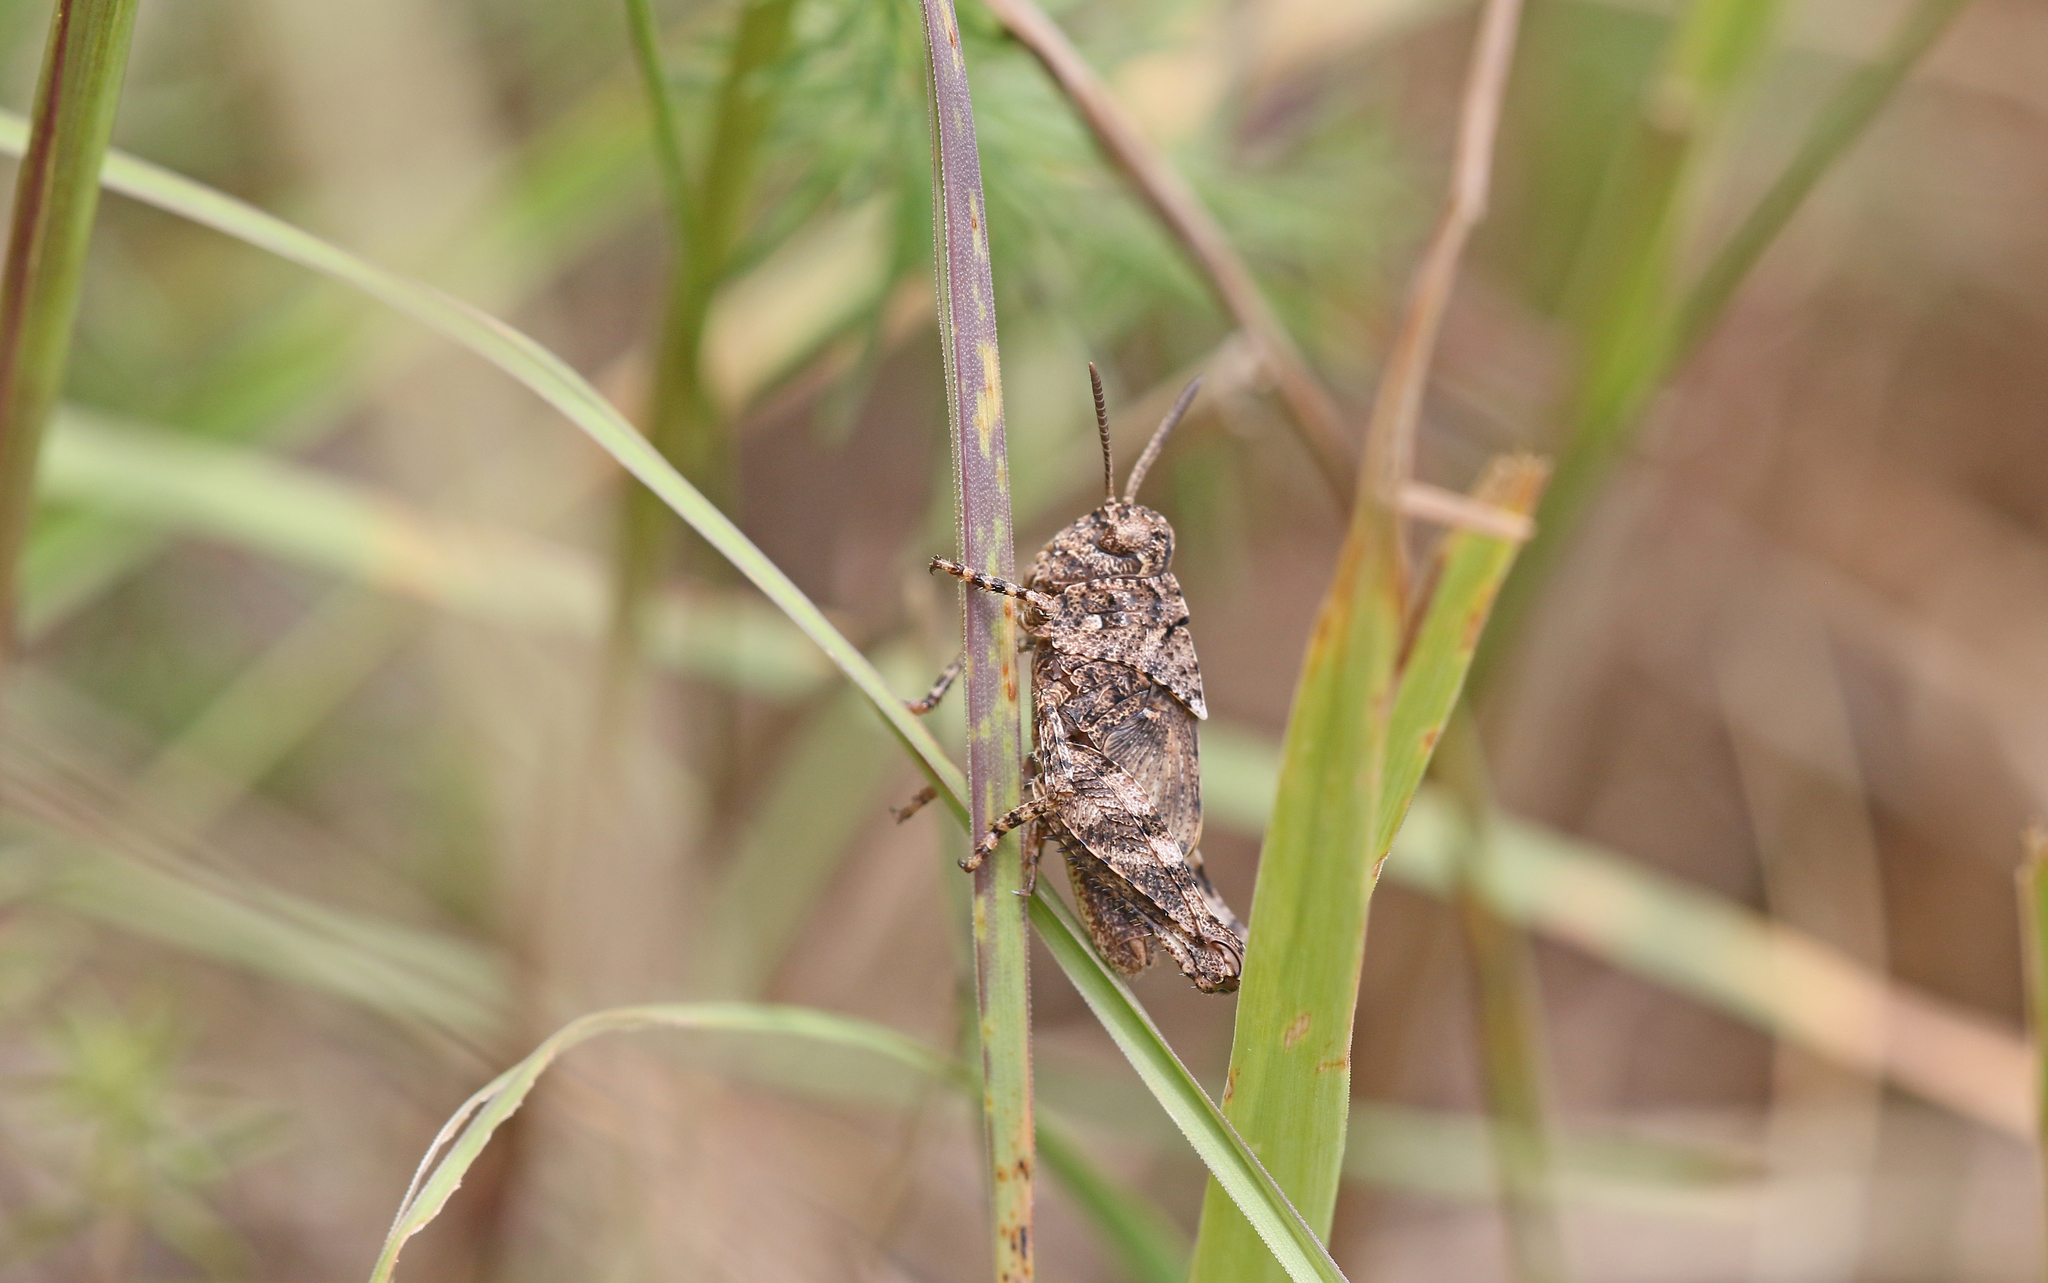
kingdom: Animalia
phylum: Arthropoda
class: Insecta
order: Orthoptera
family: Acrididae
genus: Oedipoda
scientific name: Oedipoda caerulescens
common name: Blue-winged grasshopper
